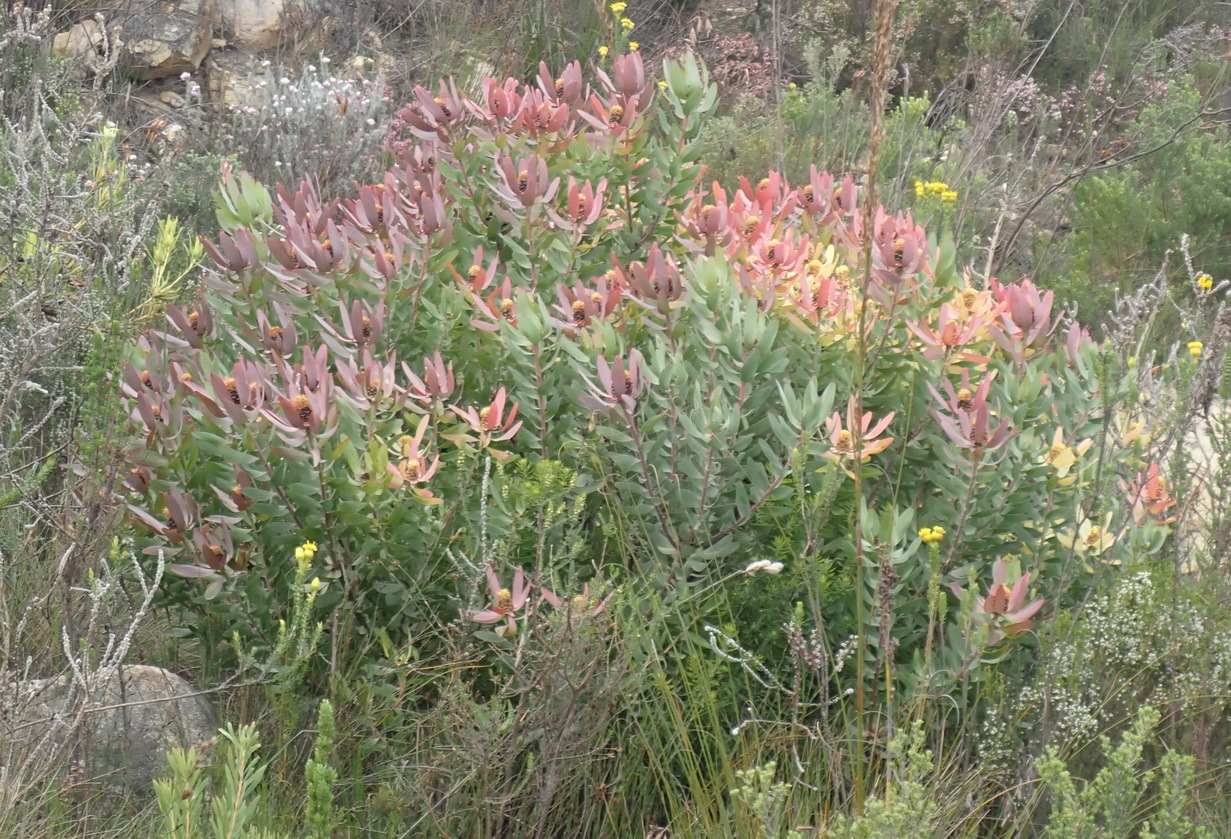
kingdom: Plantae
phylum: Tracheophyta
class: Magnoliopsida
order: Proteales
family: Proteaceae
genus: Leucadendron
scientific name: Leucadendron tinctum
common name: Spicy conebush
